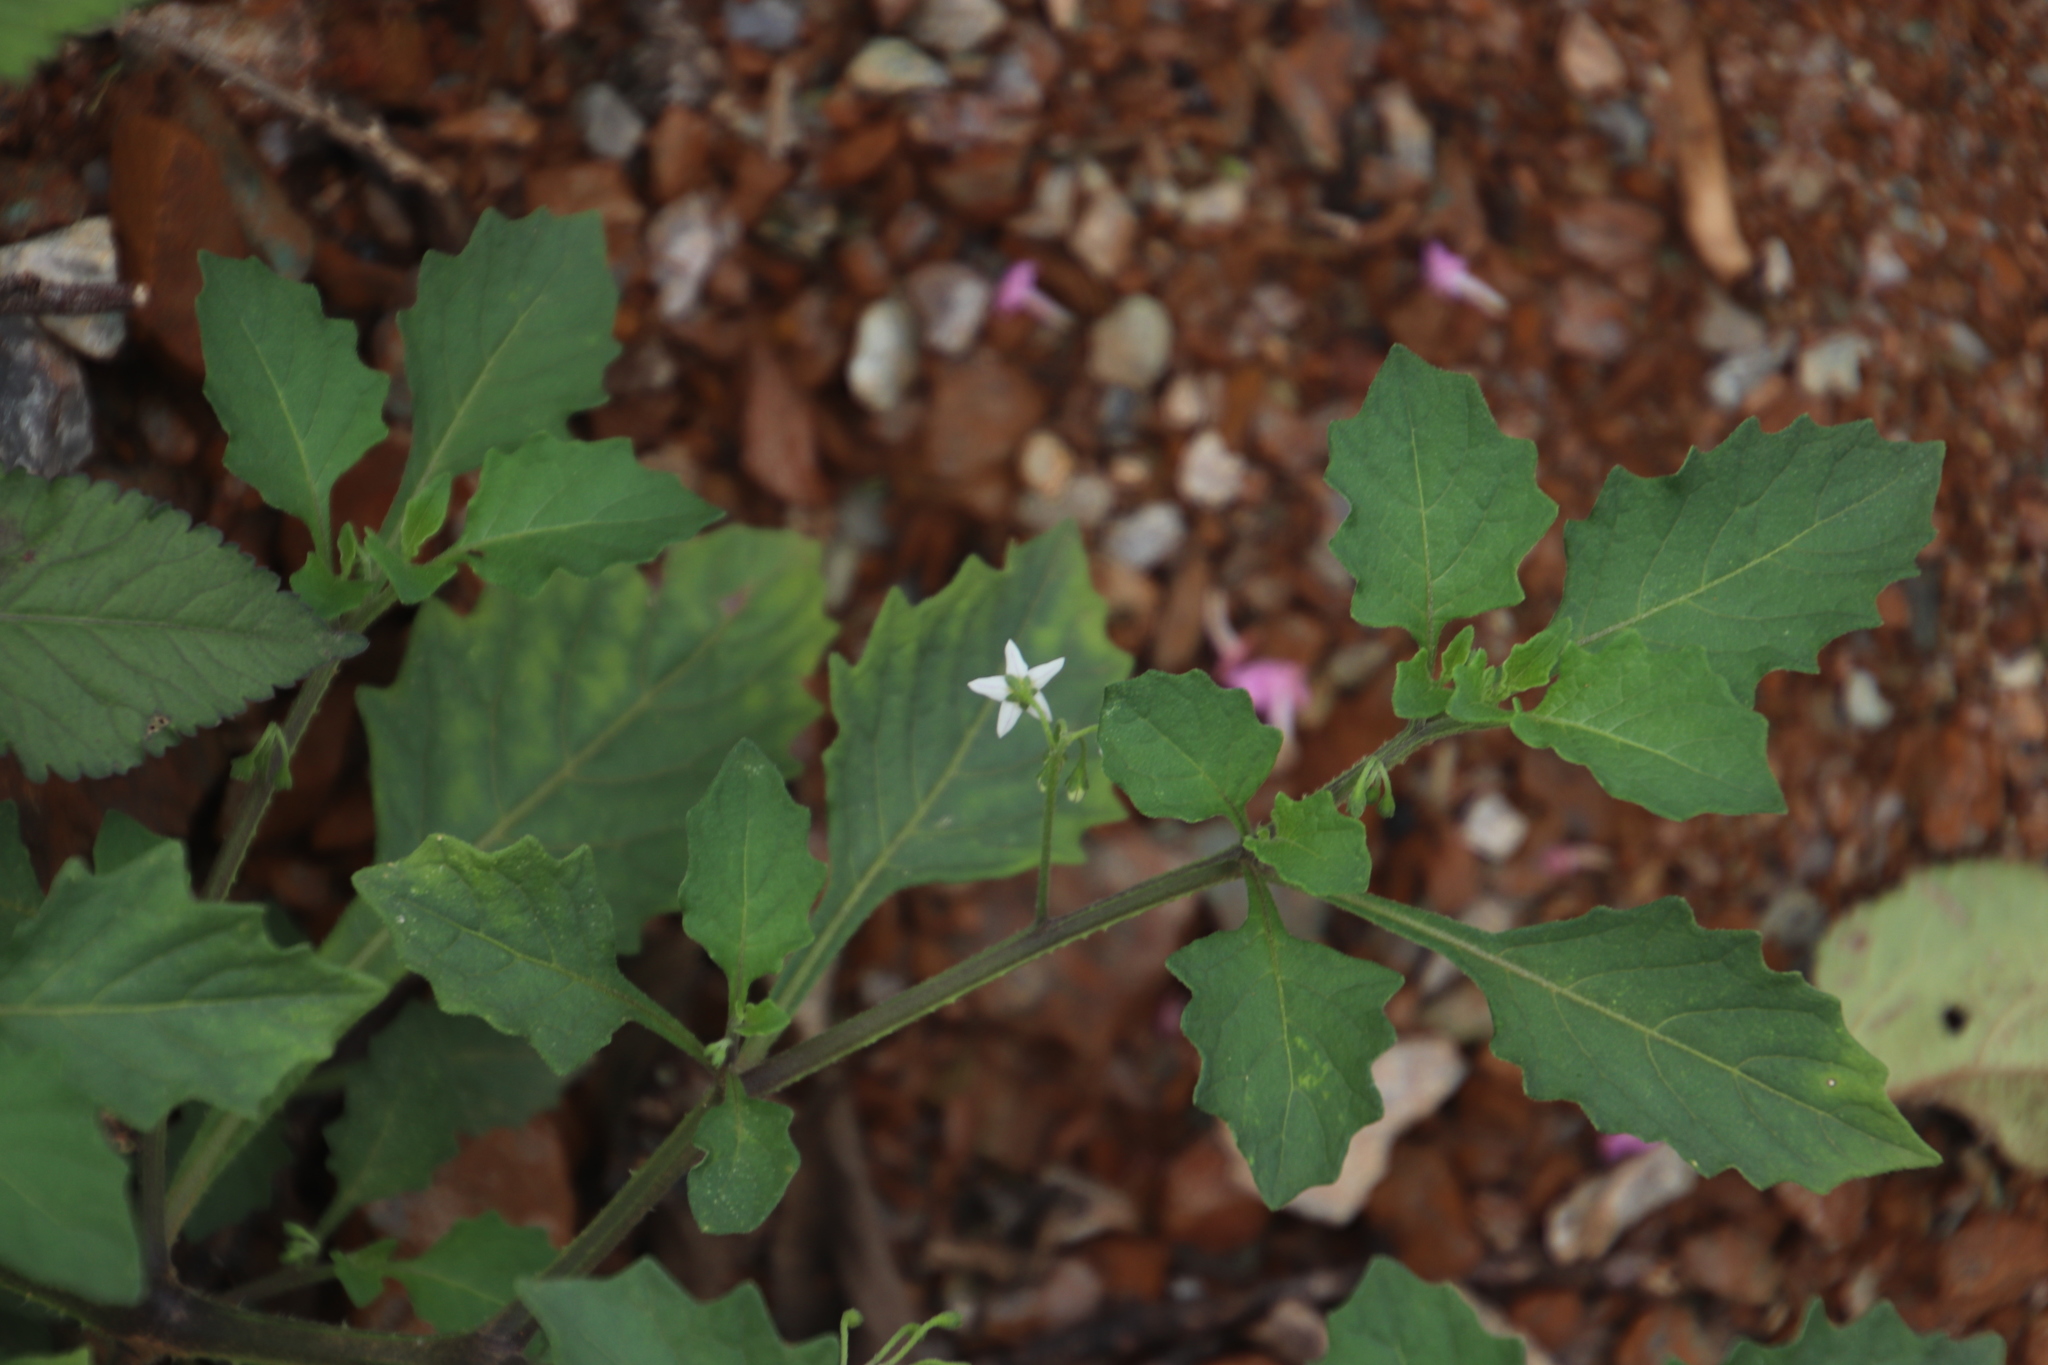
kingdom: Plantae
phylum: Tracheophyta
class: Magnoliopsida
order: Solanales
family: Solanaceae
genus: Solanum
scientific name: Solanum retroflexum
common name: Wonderberry
